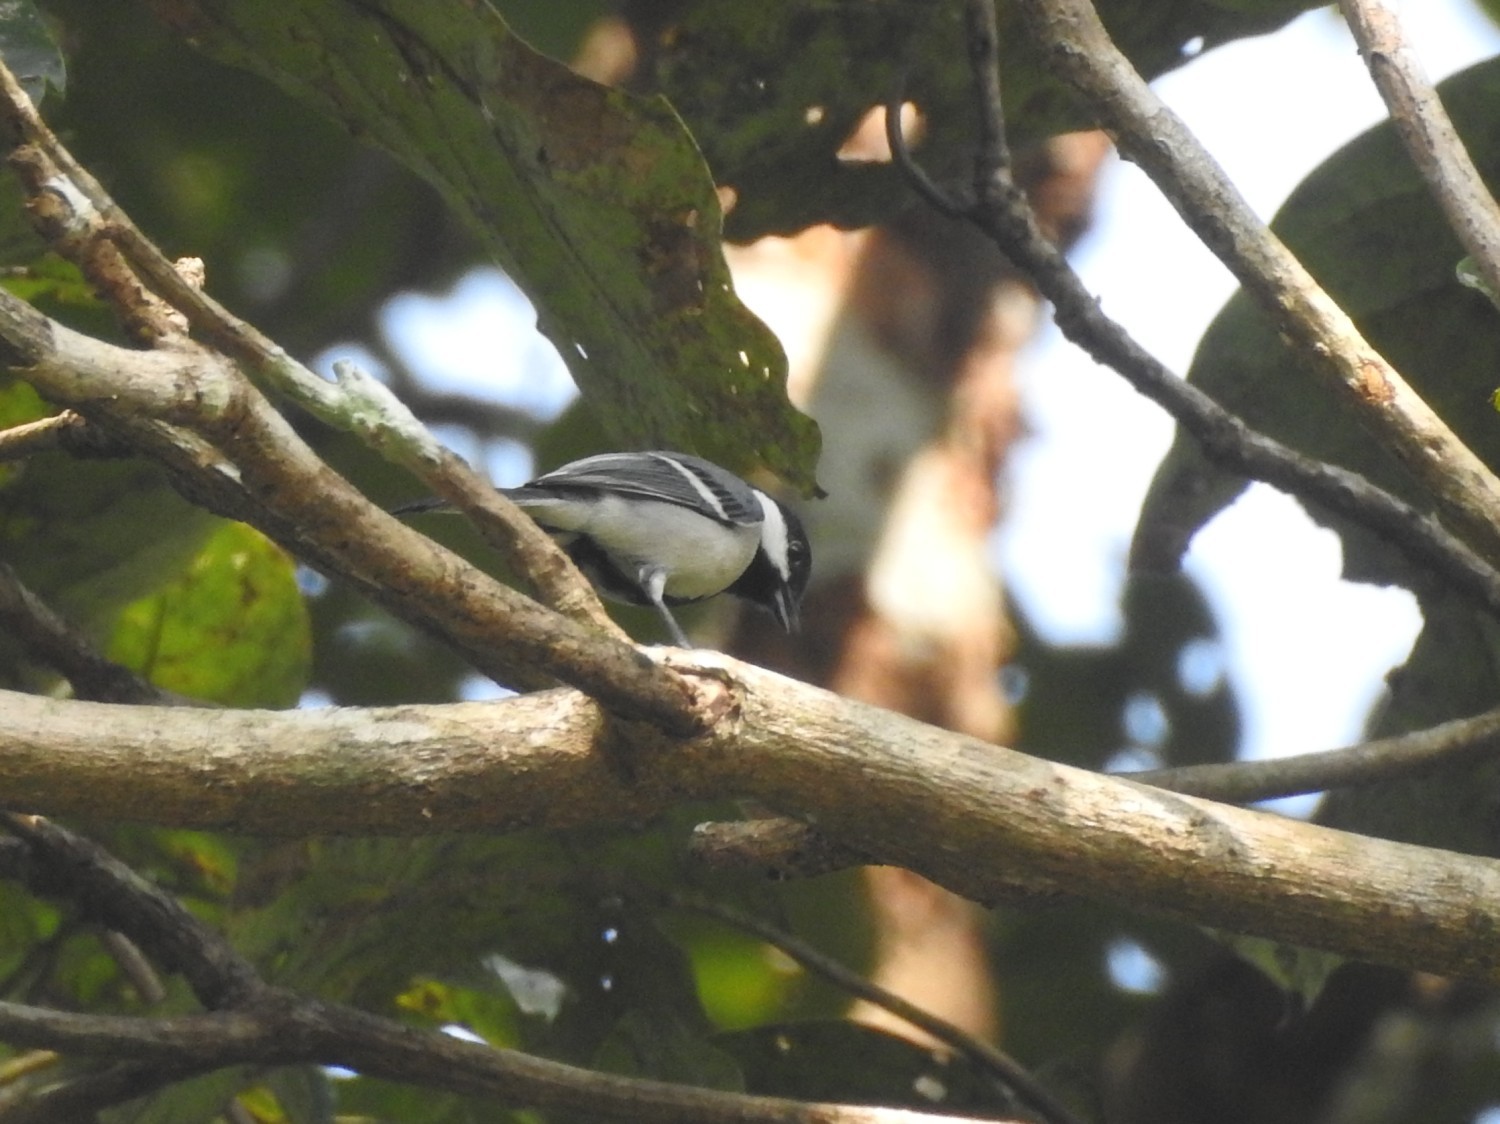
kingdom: Animalia
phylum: Chordata
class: Aves
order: Passeriformes
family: Paridae
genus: Parus
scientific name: Parus cinereus
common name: Cinereous tit
